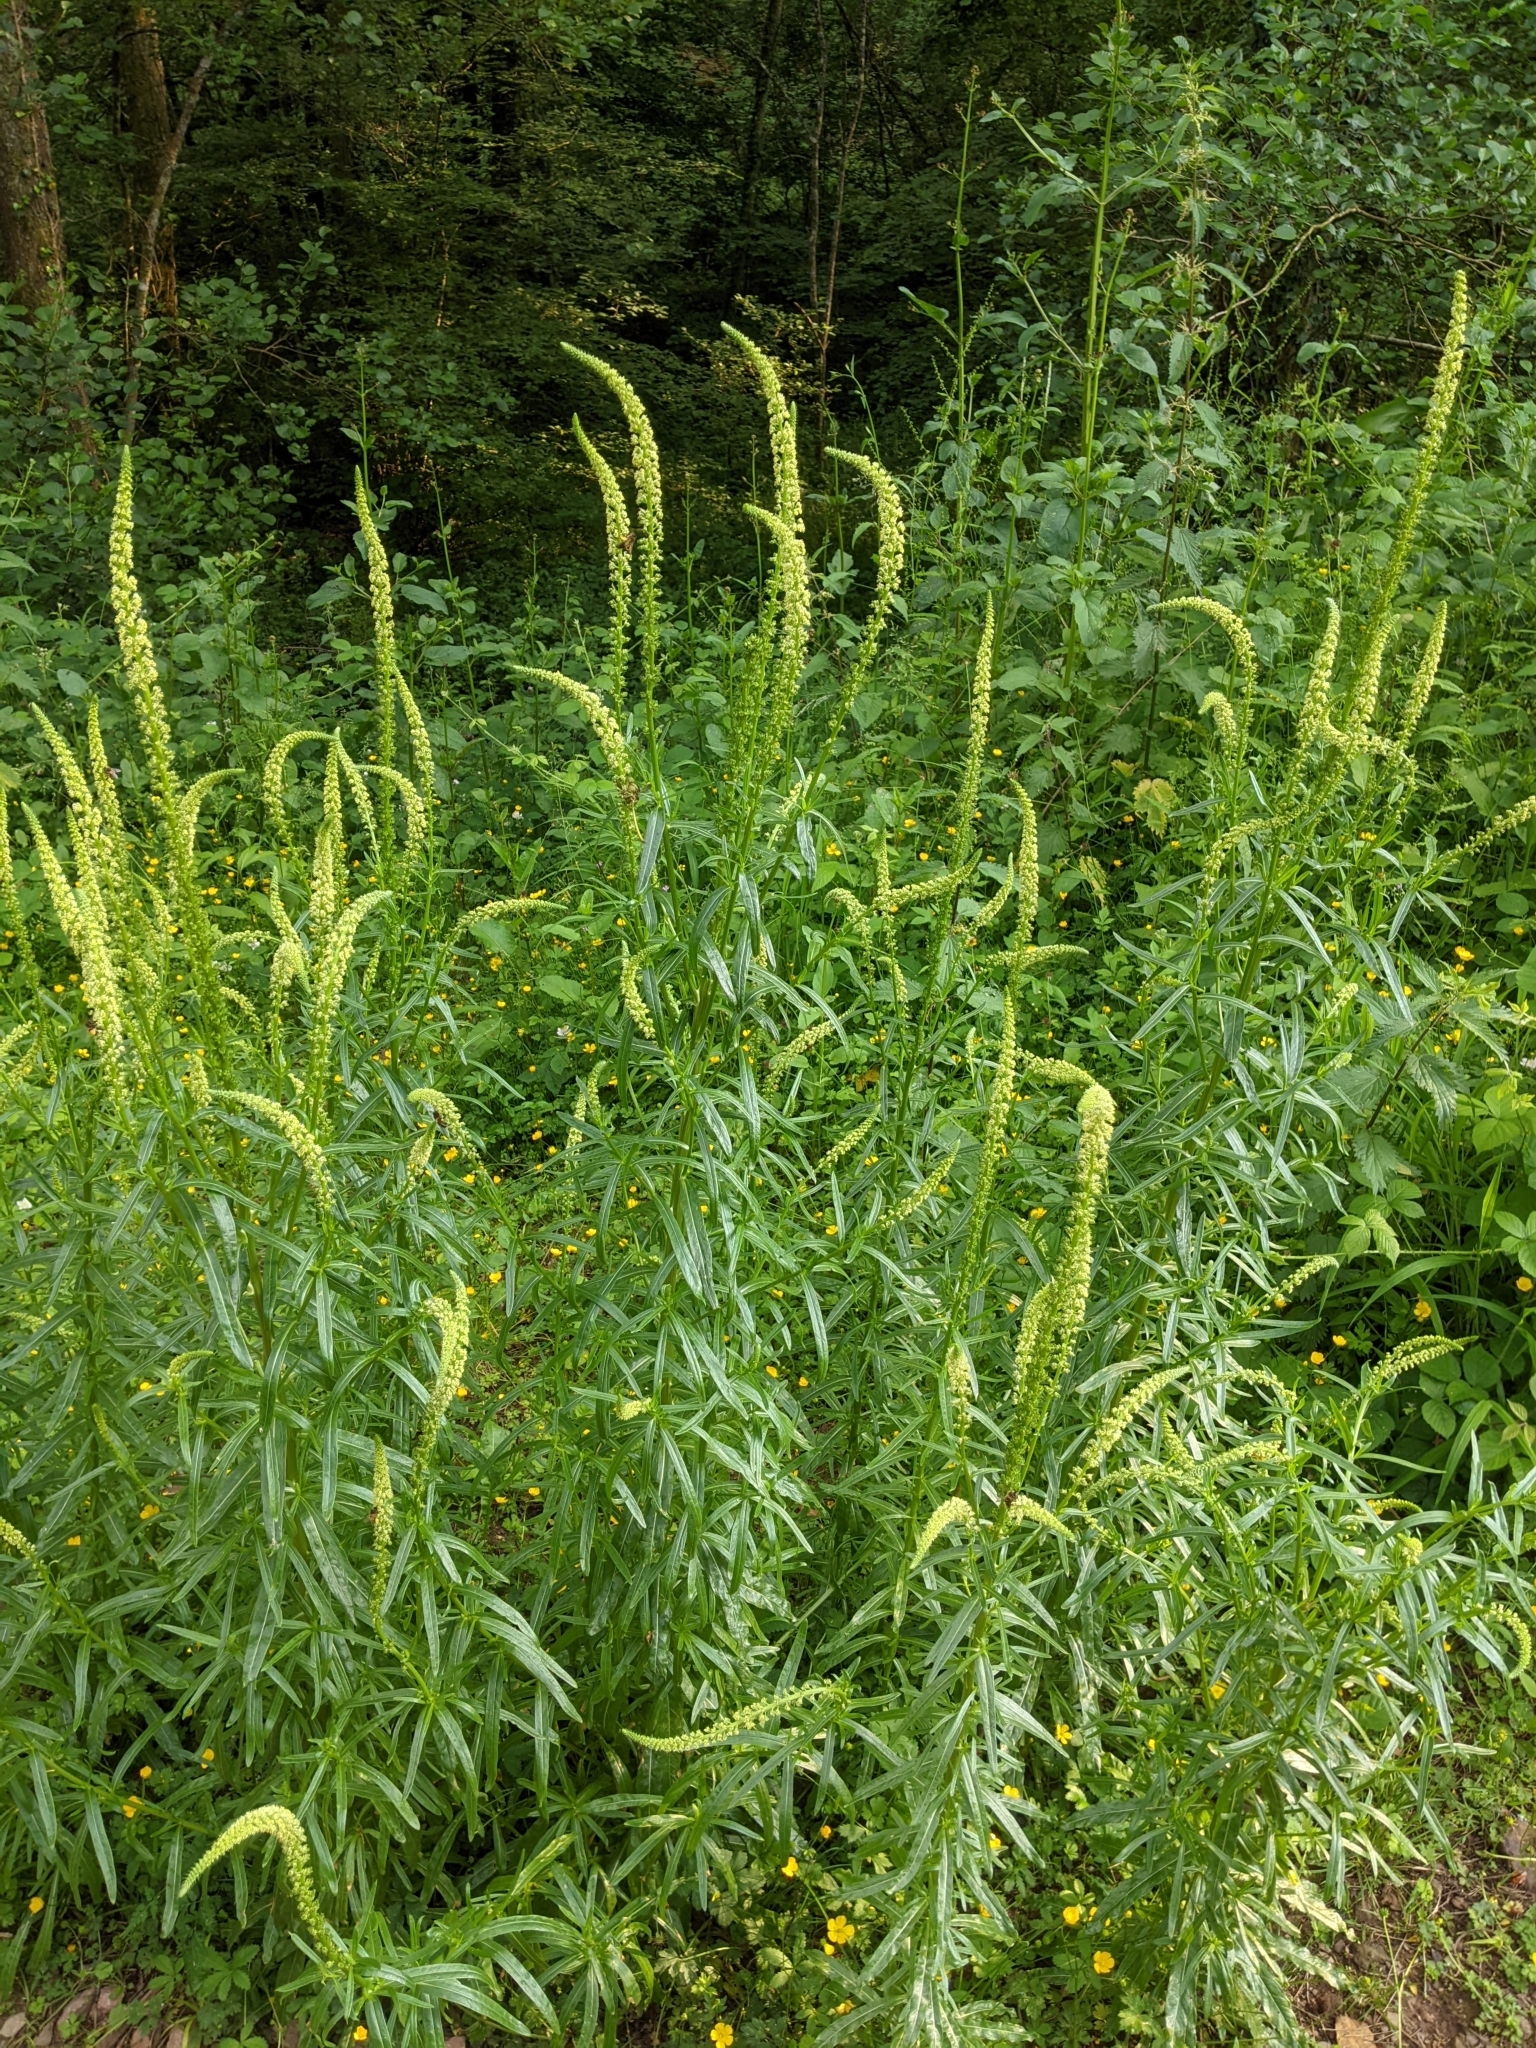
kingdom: Plantae
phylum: Tracheophyta
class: Magnoliopsida
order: Brassicales
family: Resedaceae
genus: Reseda
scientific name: Reseda luteola
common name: Weld
